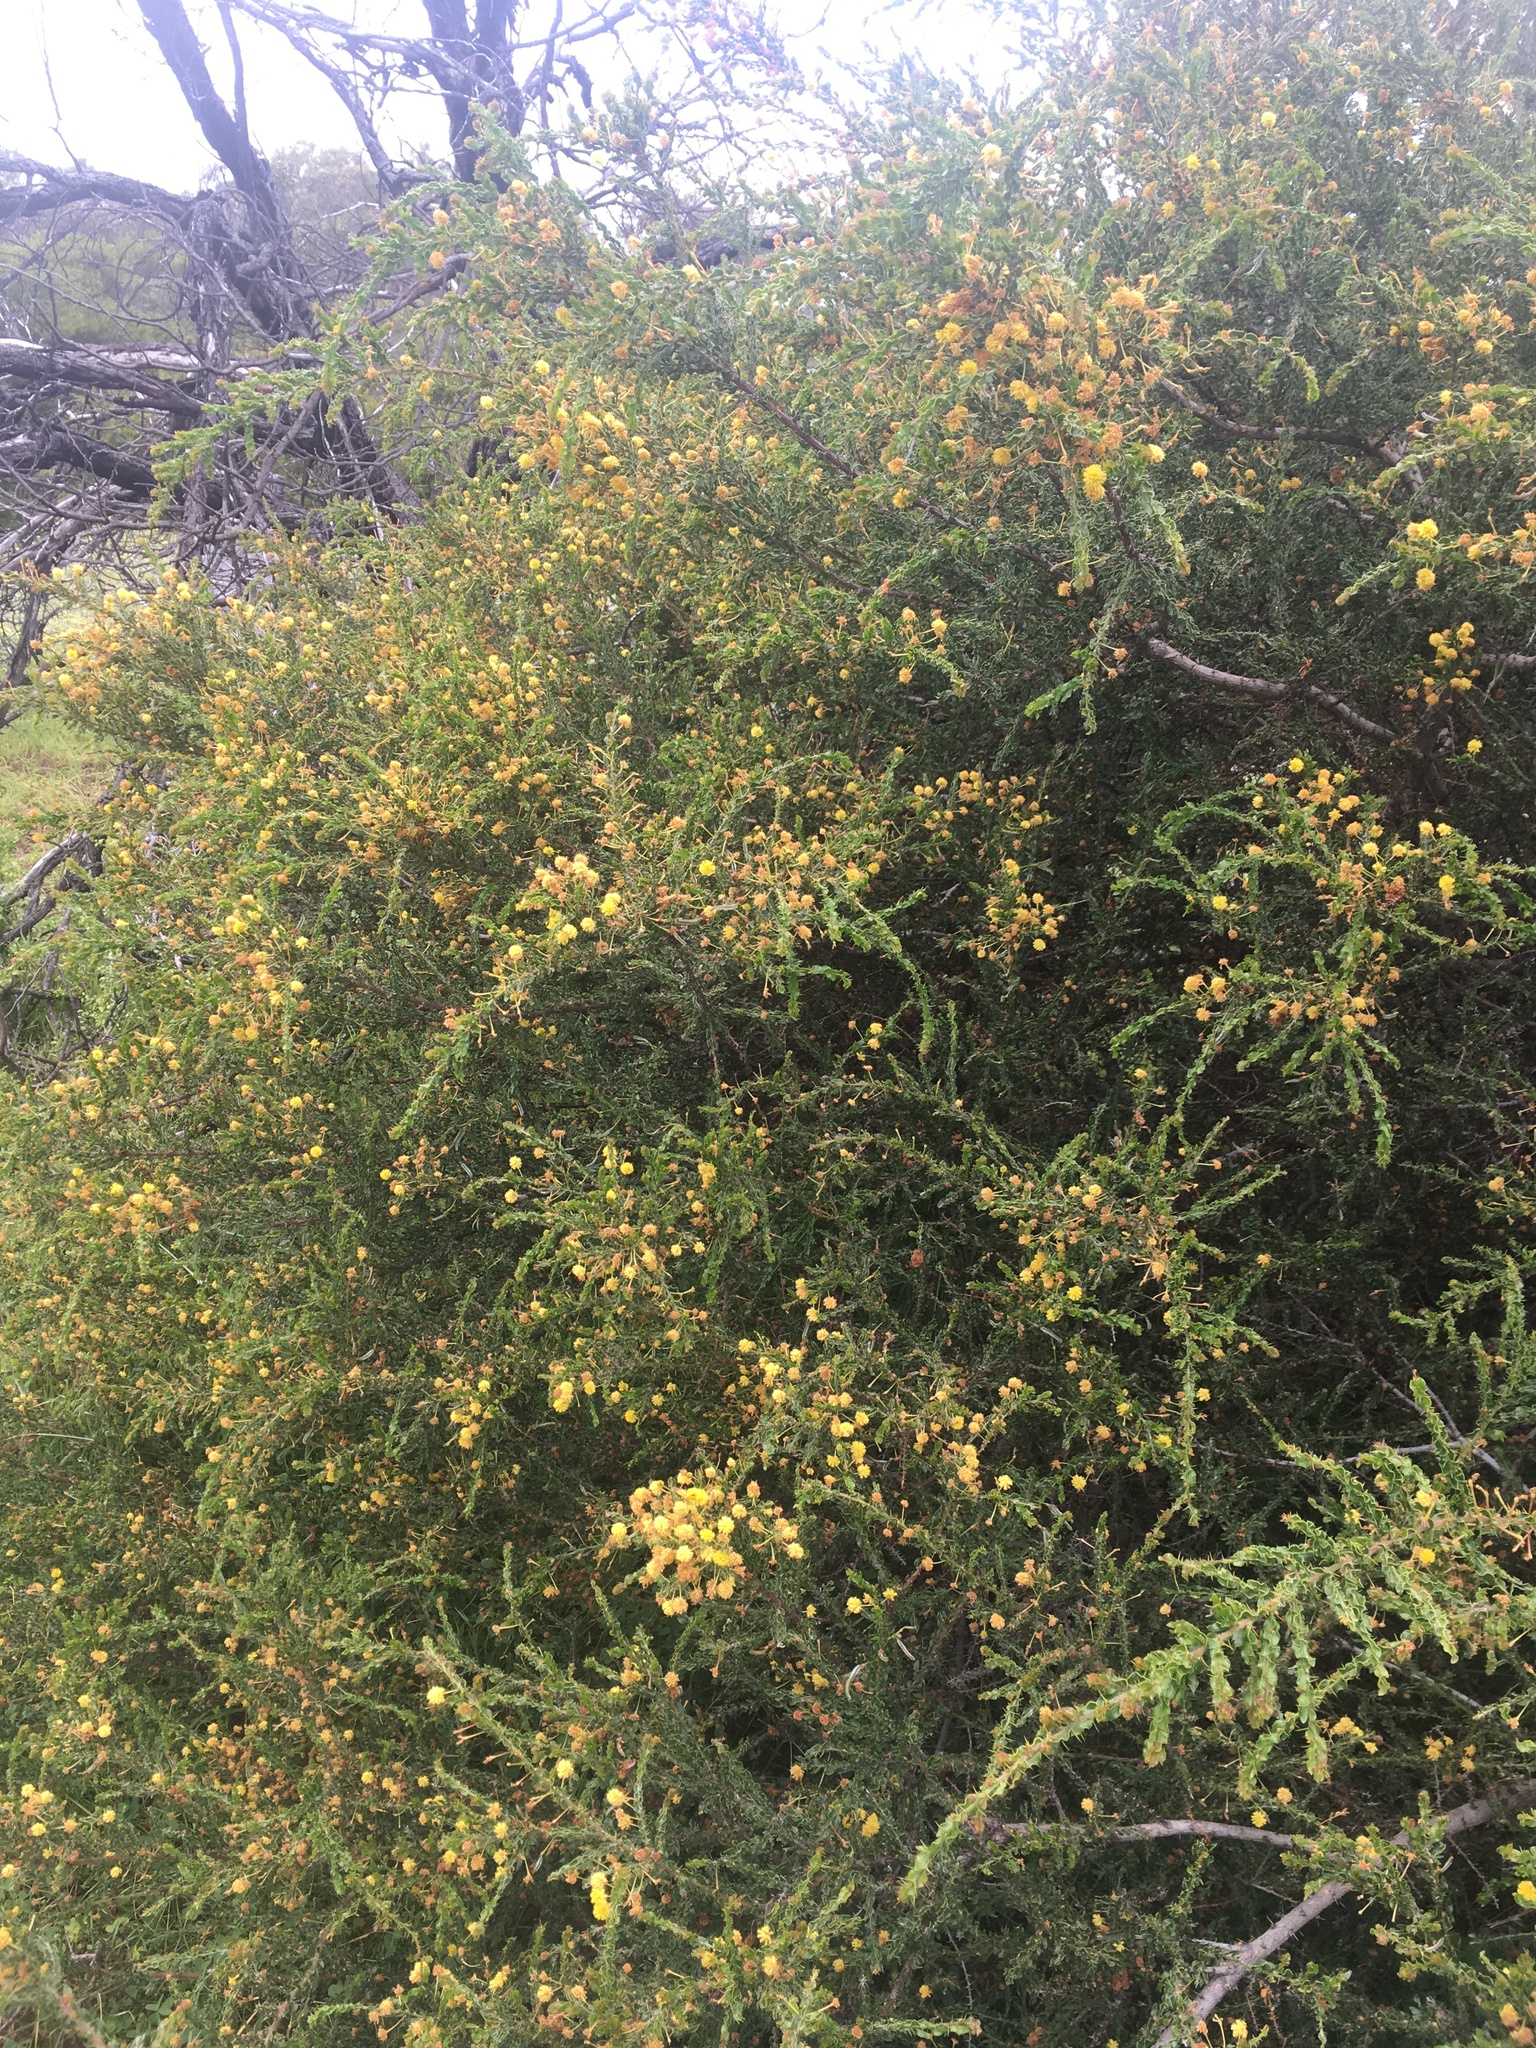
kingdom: Plantae
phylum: Tracheophyta
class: Magnoliopsida
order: Fabales
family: Fabaceae
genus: Acacia
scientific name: Acacia paradoxa
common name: Paradox acacia
